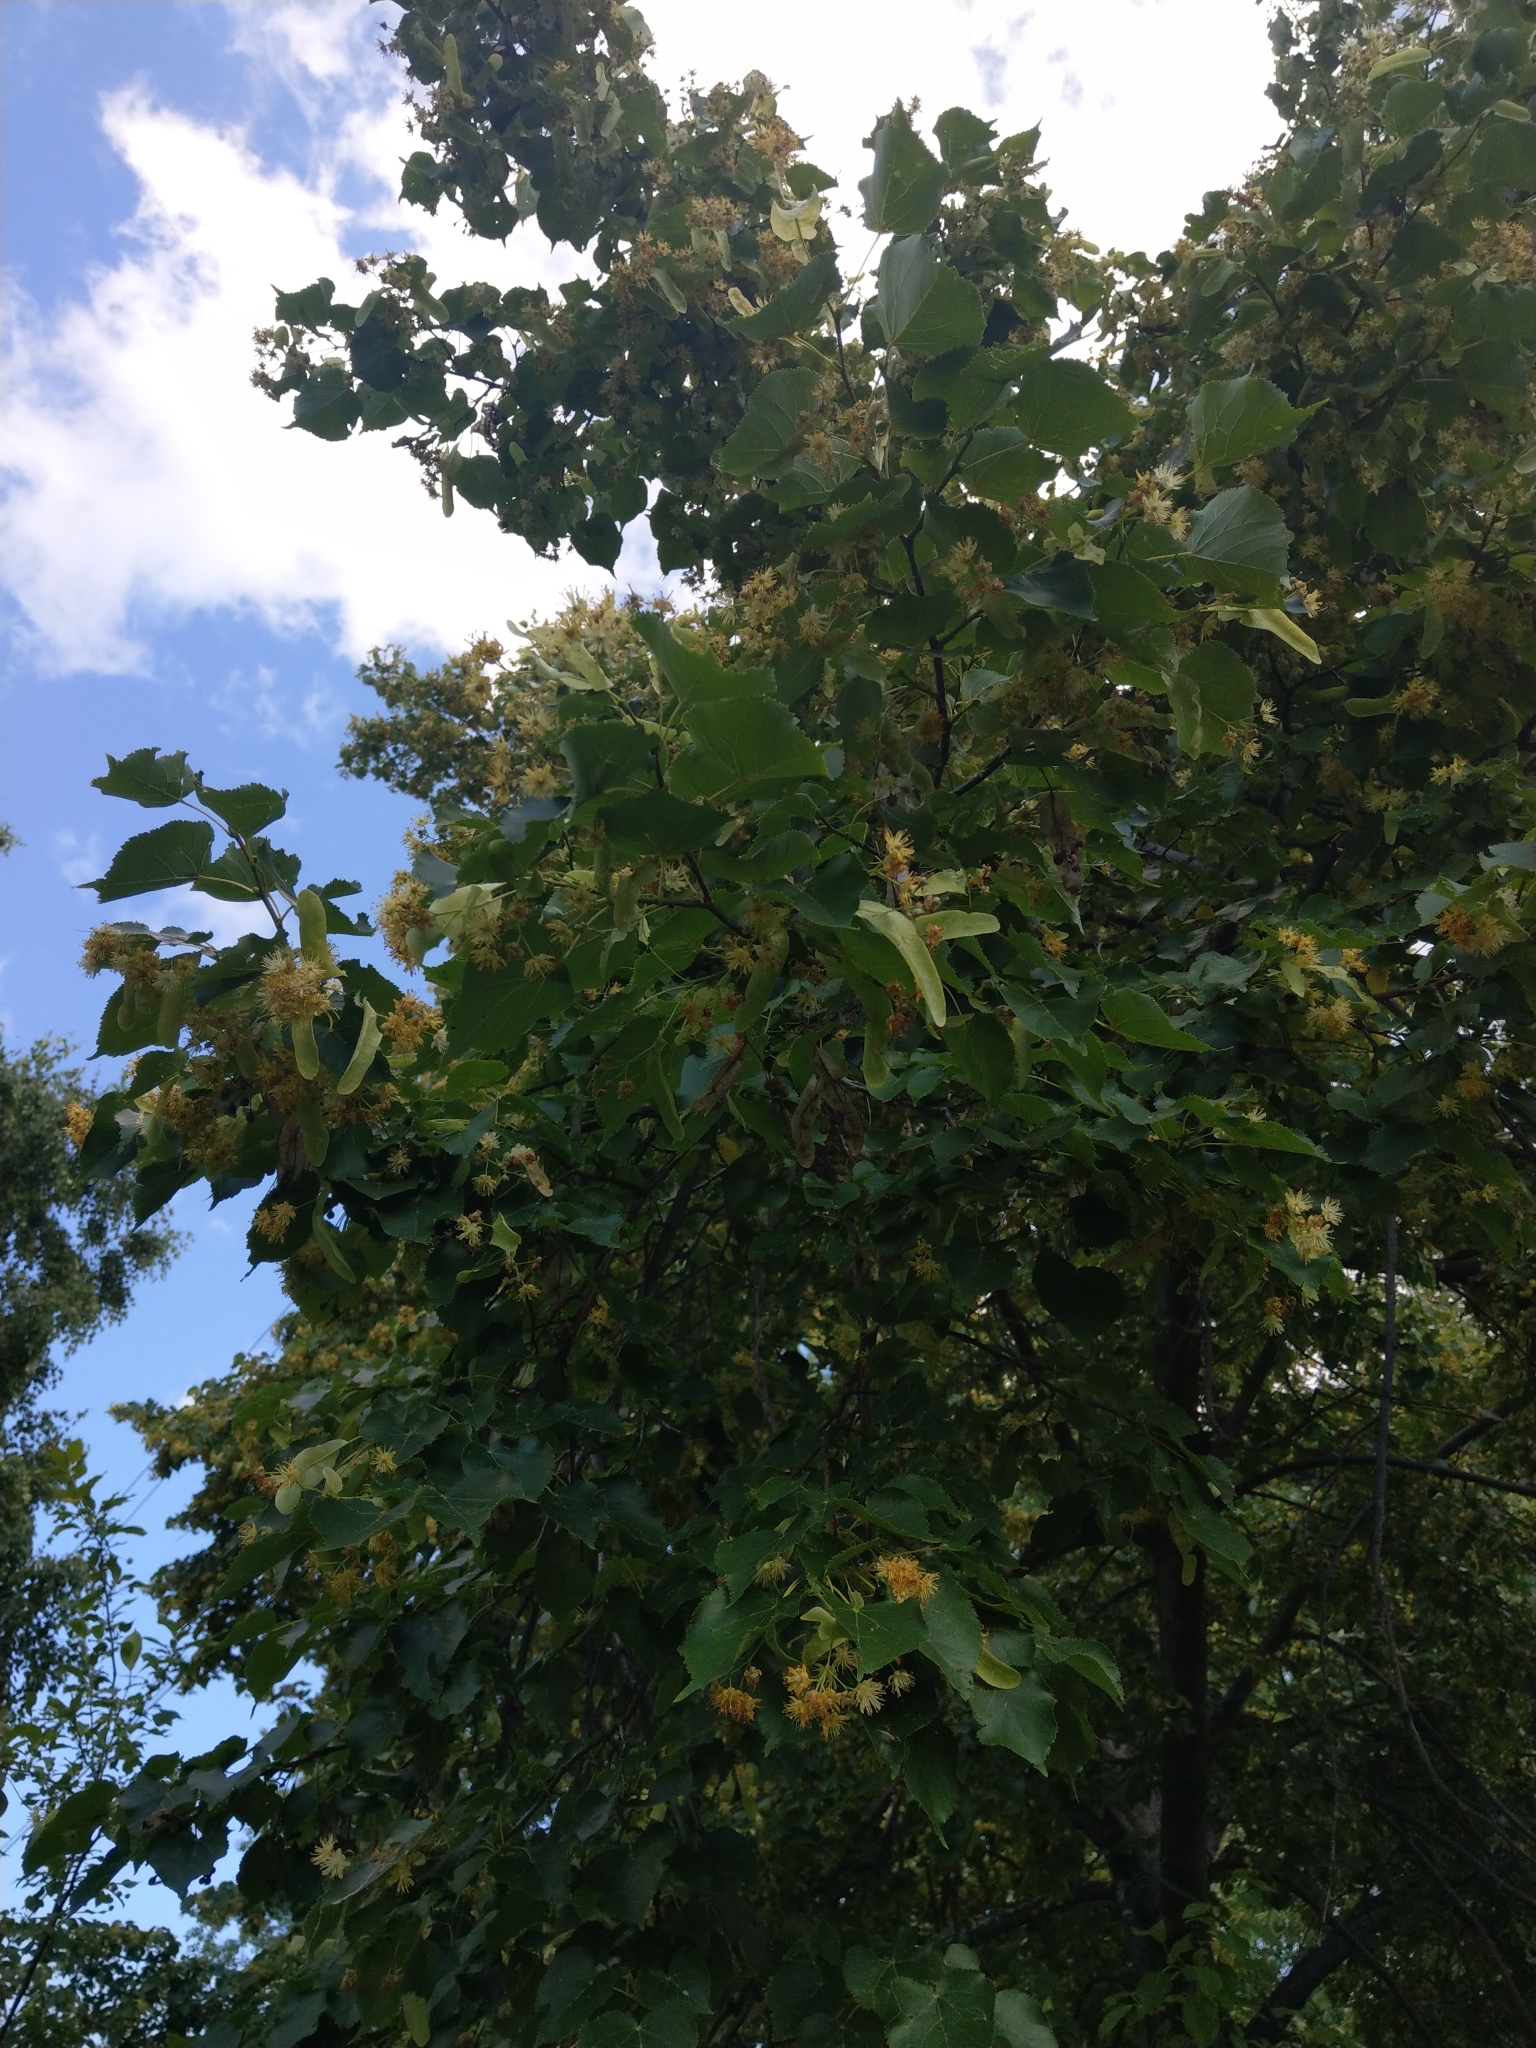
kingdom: Plantae
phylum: Tracheophyta
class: Magnoliopsida
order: Malvales
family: Malvaceae
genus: Tilia
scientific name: Tilia cordata
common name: Small-leaved lime
